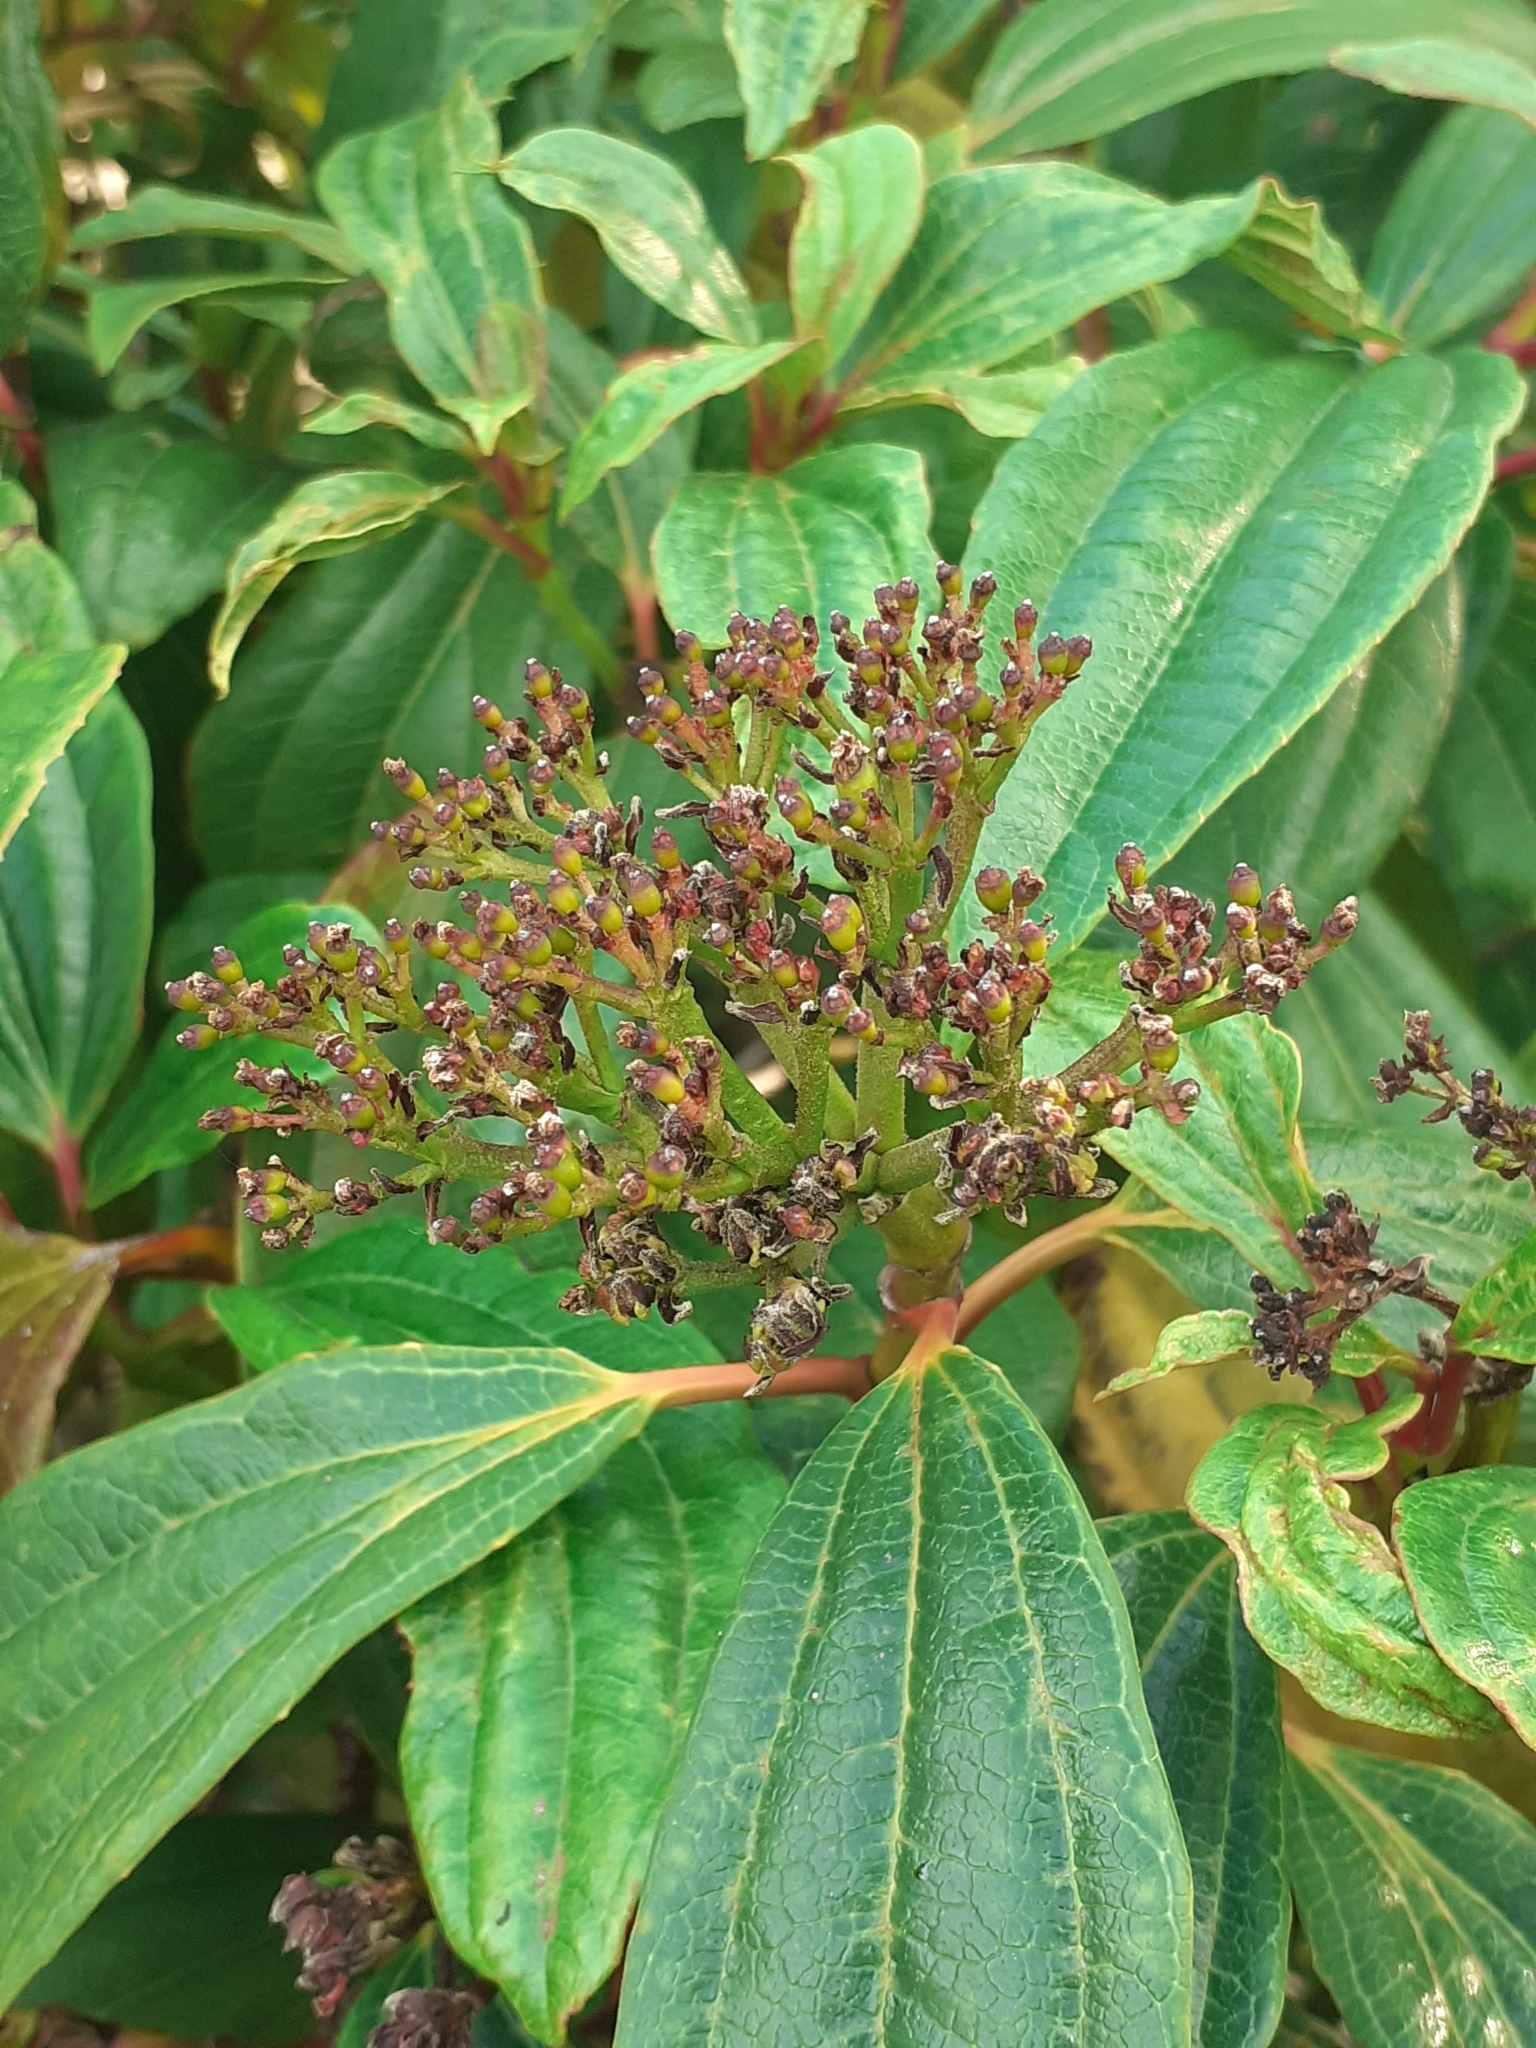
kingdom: Plantae
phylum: Tracheophyta
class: Magnoliopsida
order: Dipsacales
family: Viburnaceae
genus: Viburnum
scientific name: Viburnum davidi
